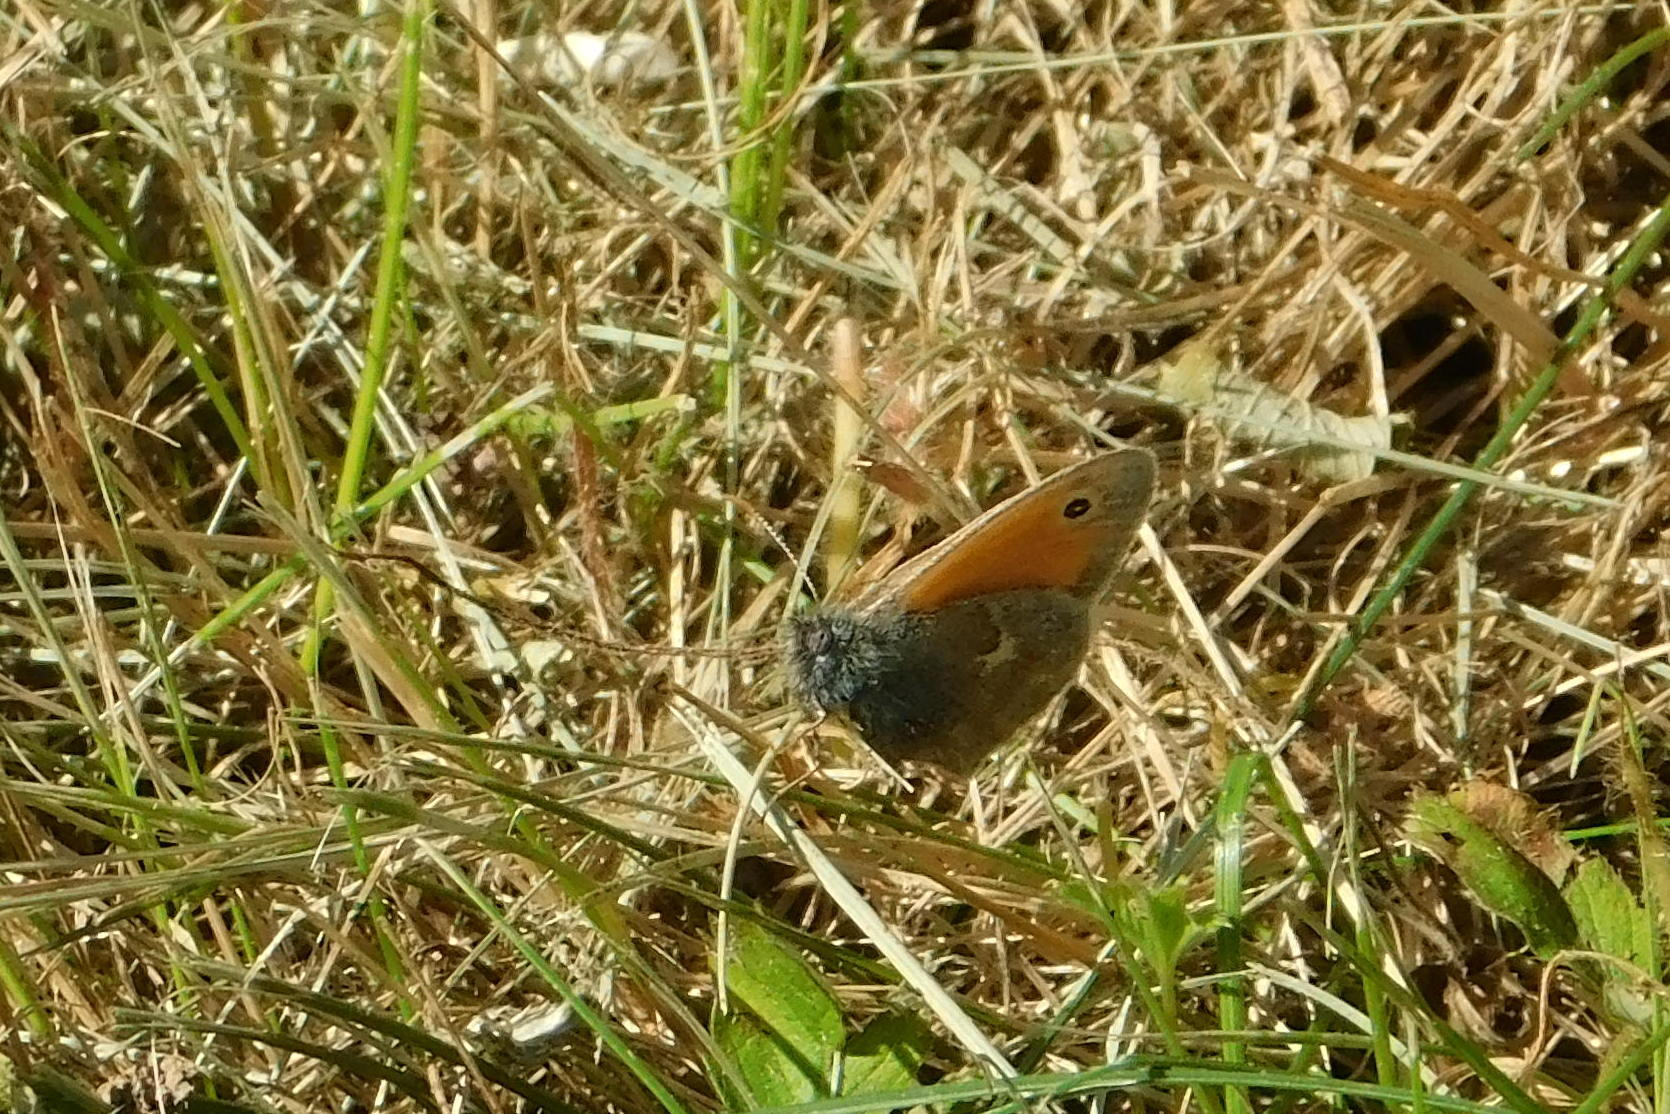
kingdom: Animalia
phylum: Arthropoda
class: Insecta
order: Lepidoptera
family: Nymphalidae
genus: Coenonympha
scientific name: Coenonympha pamphilus
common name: Small heath
